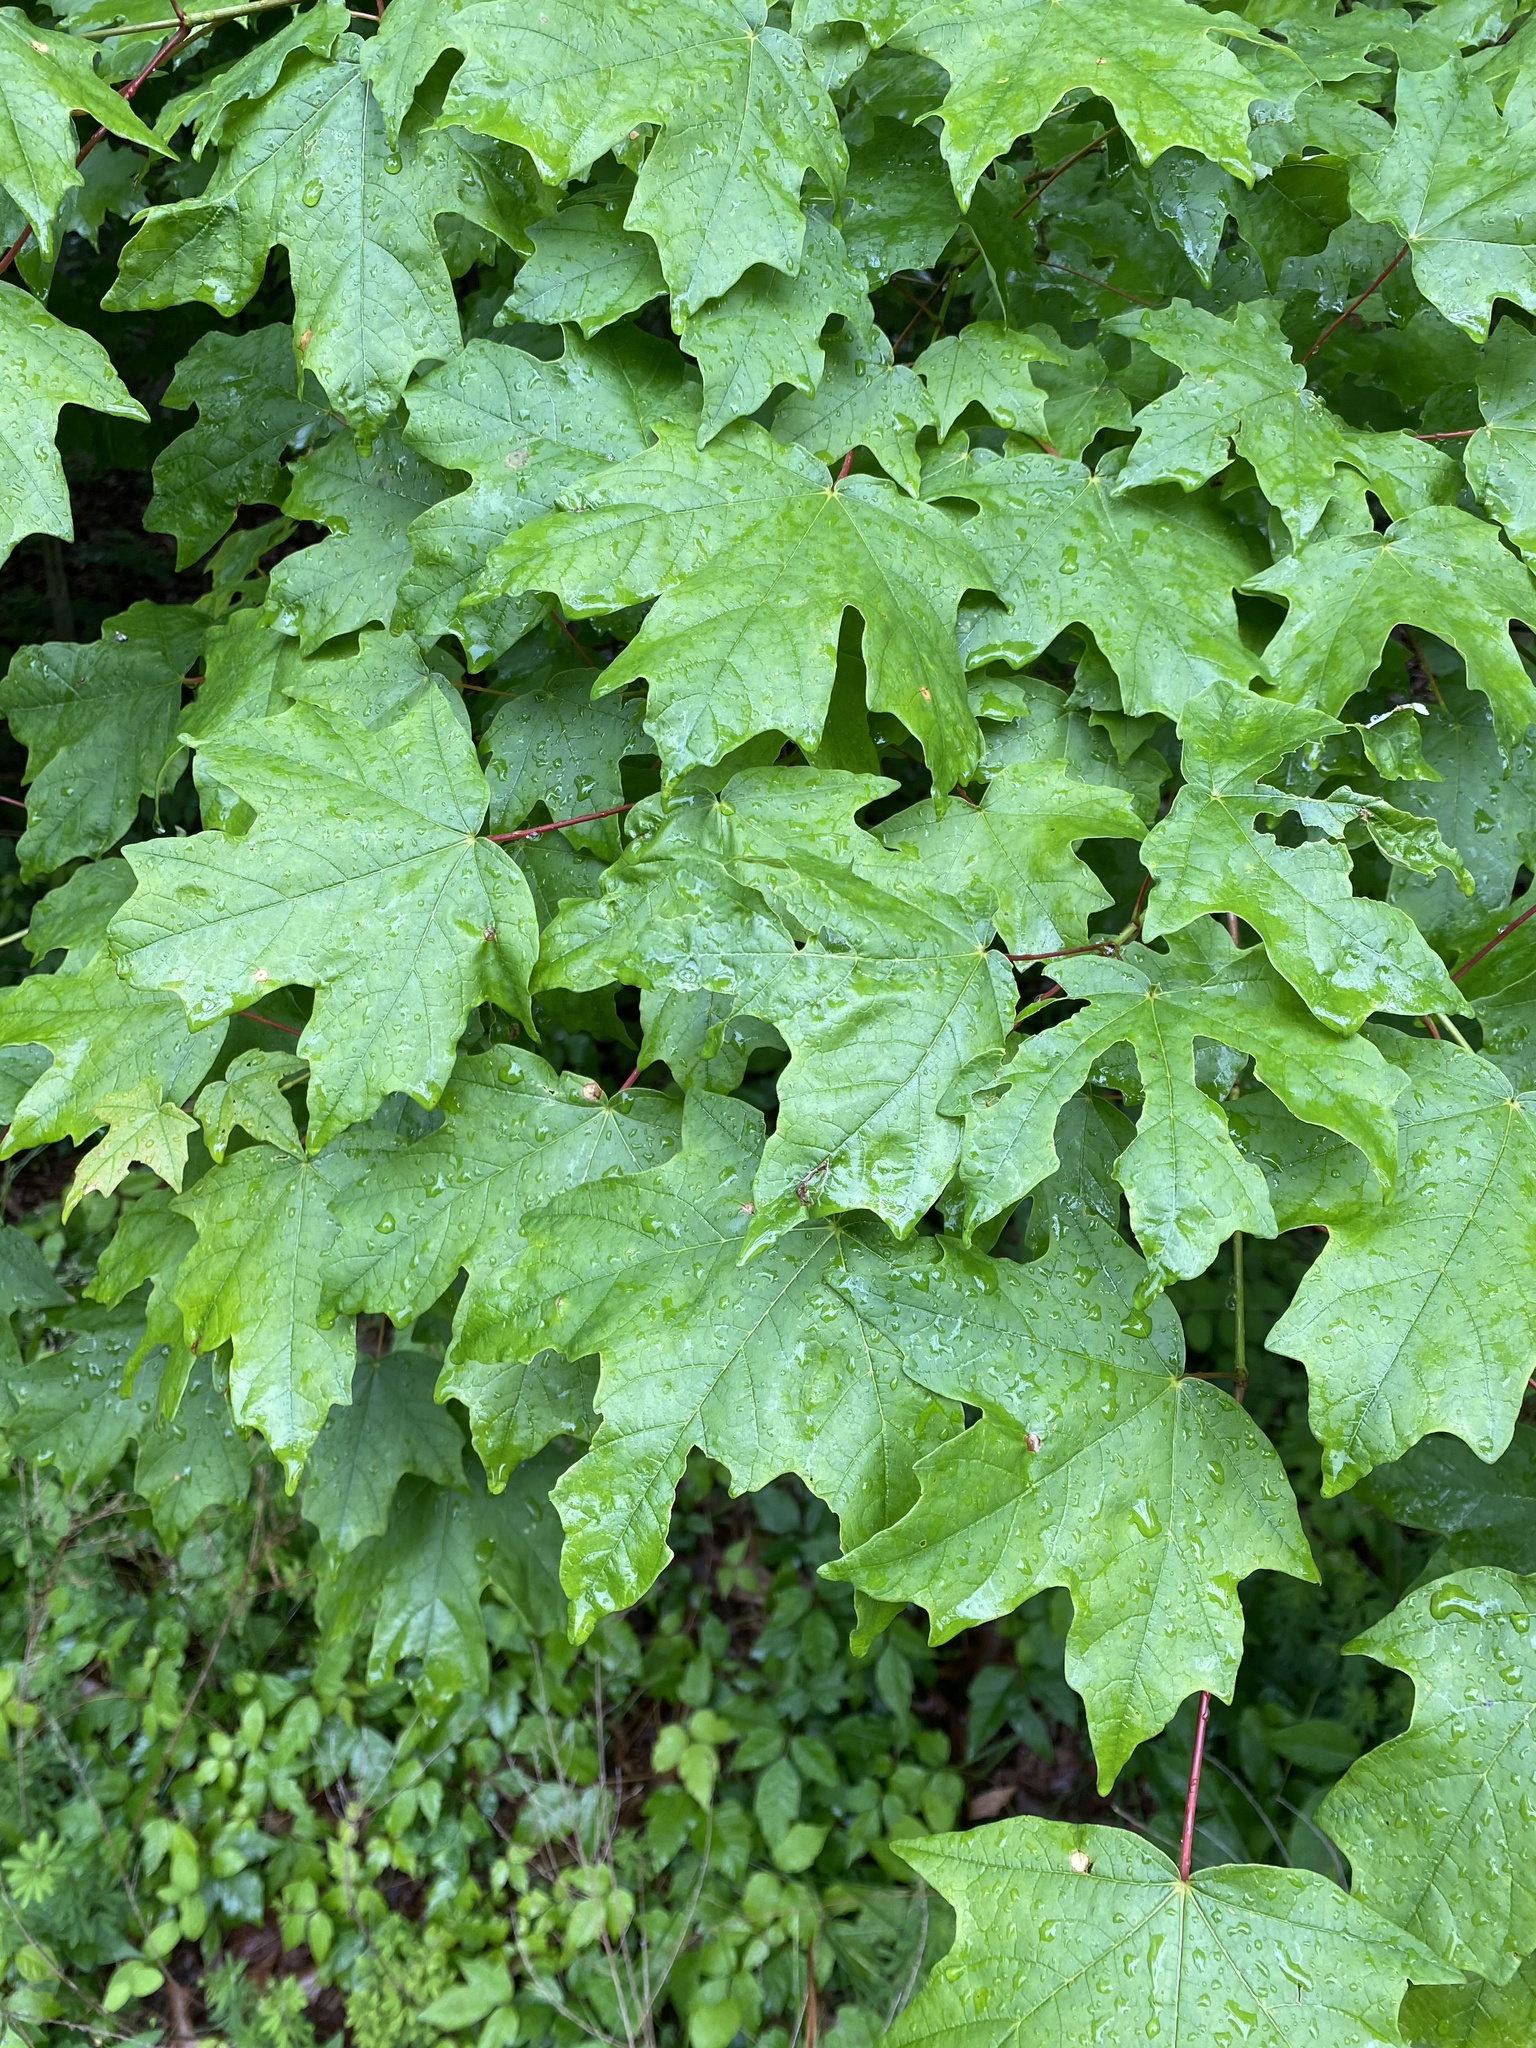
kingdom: Plantae
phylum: Tracheophyta
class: Magnoliopsida
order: Sapindales
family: Sapindaceae
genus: Acer
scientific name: Acer floridanum
